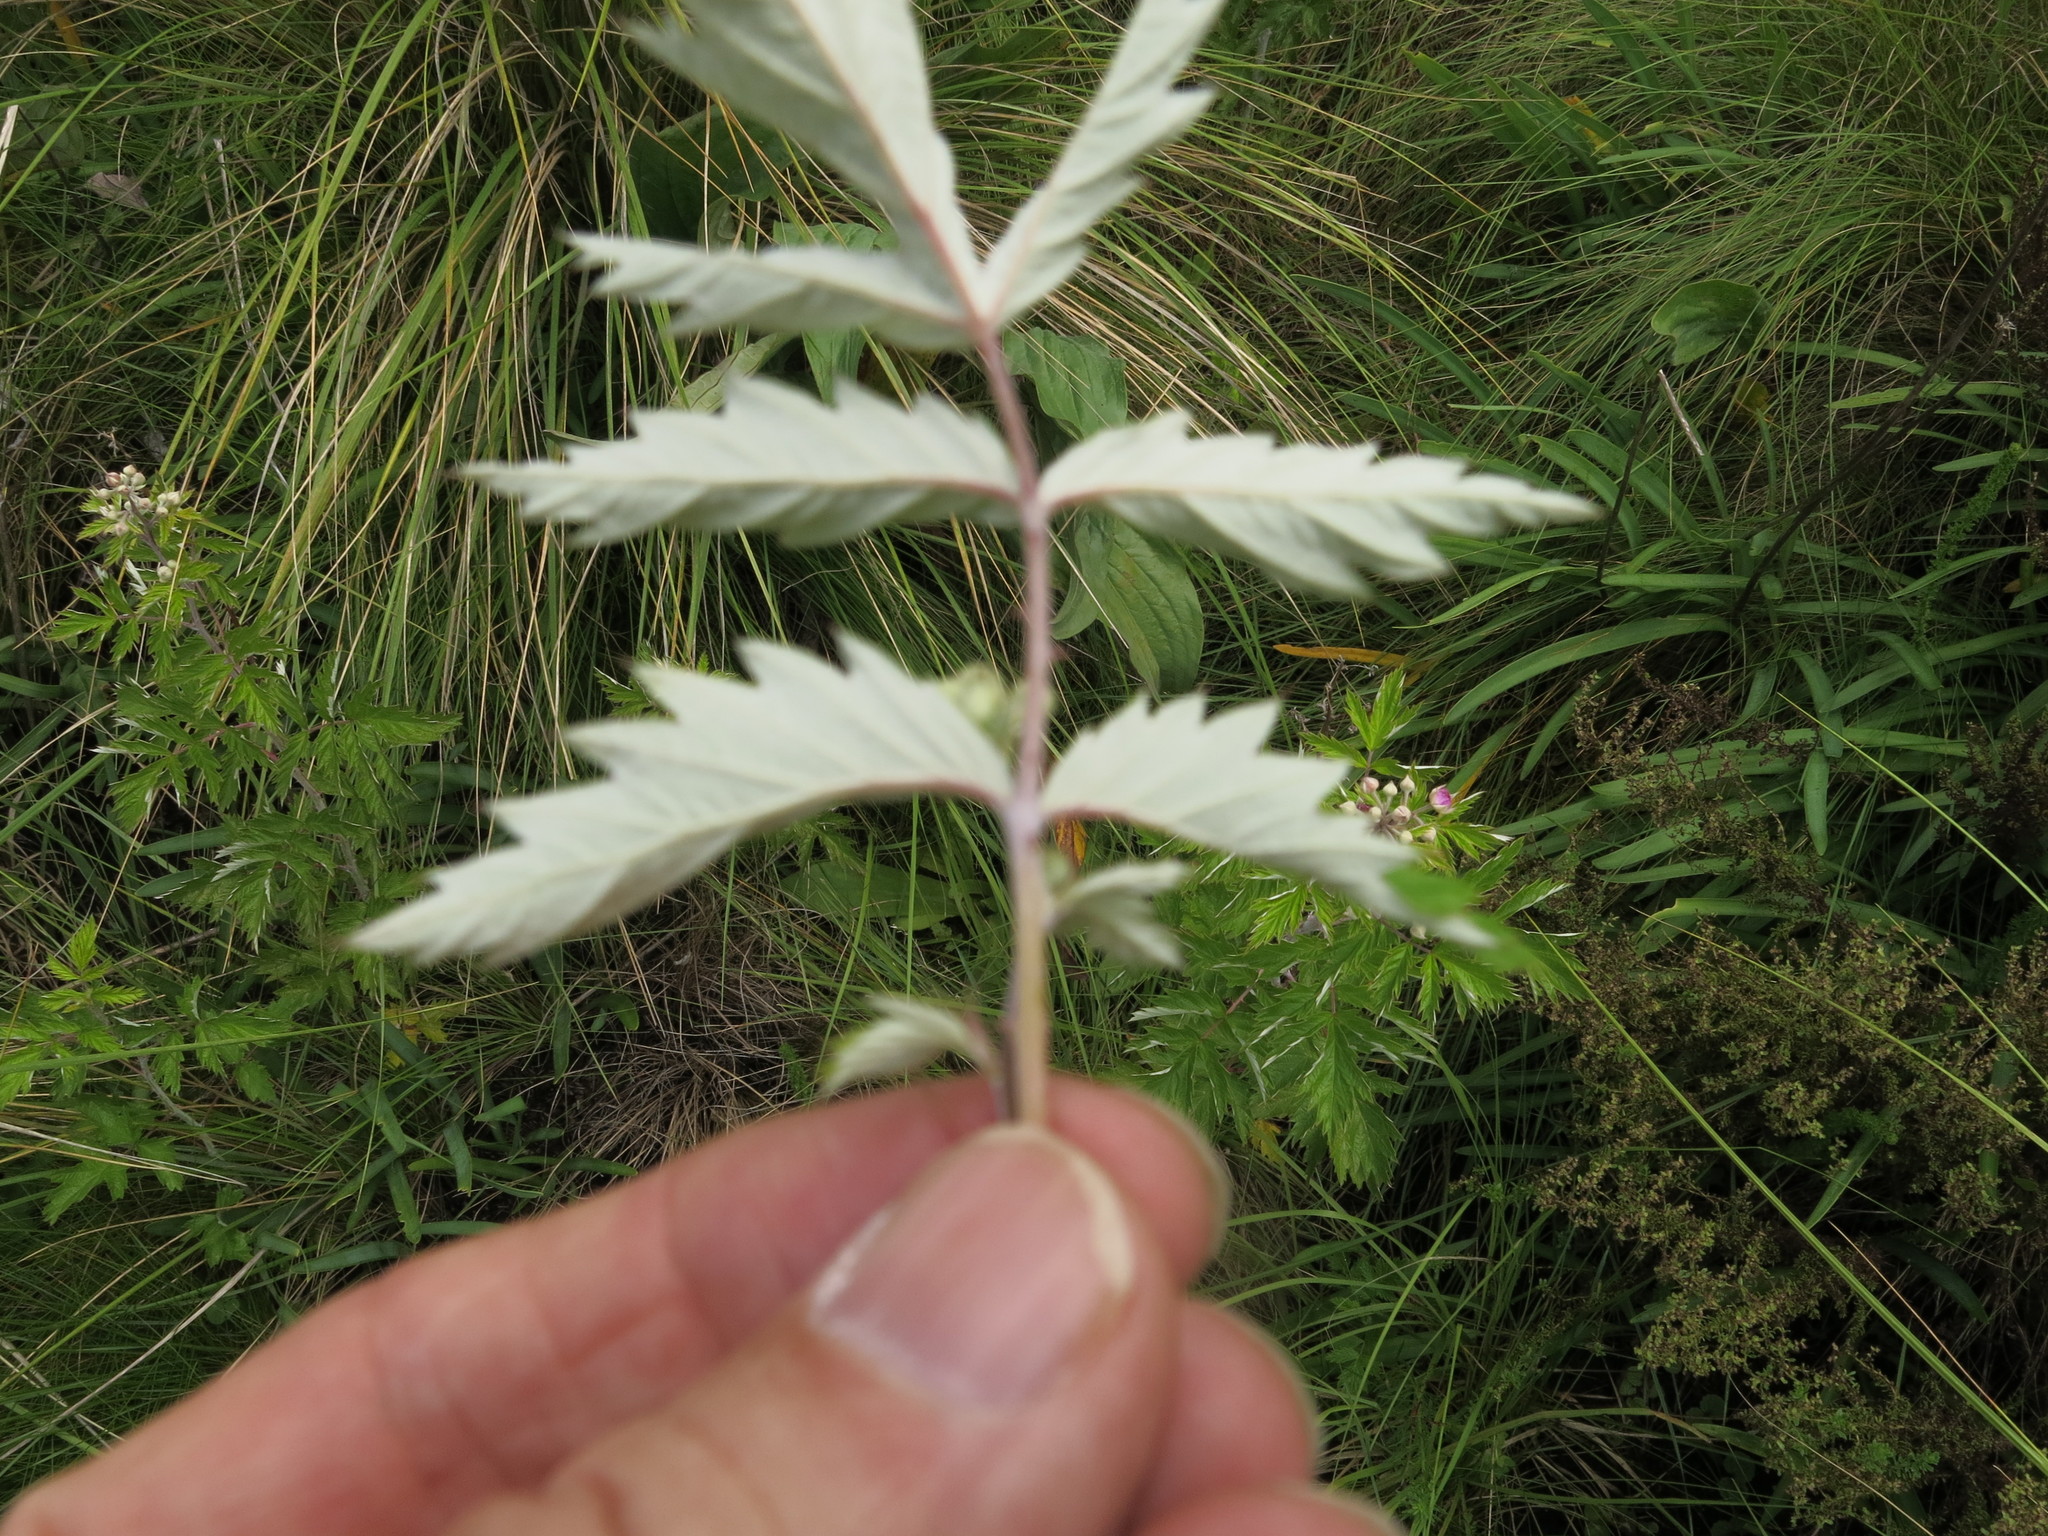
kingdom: Plantae
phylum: Tracheophyta
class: Magnoliopsida
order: Rosales
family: Rosaceae
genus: Rubus
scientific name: Rubus ludwigii
